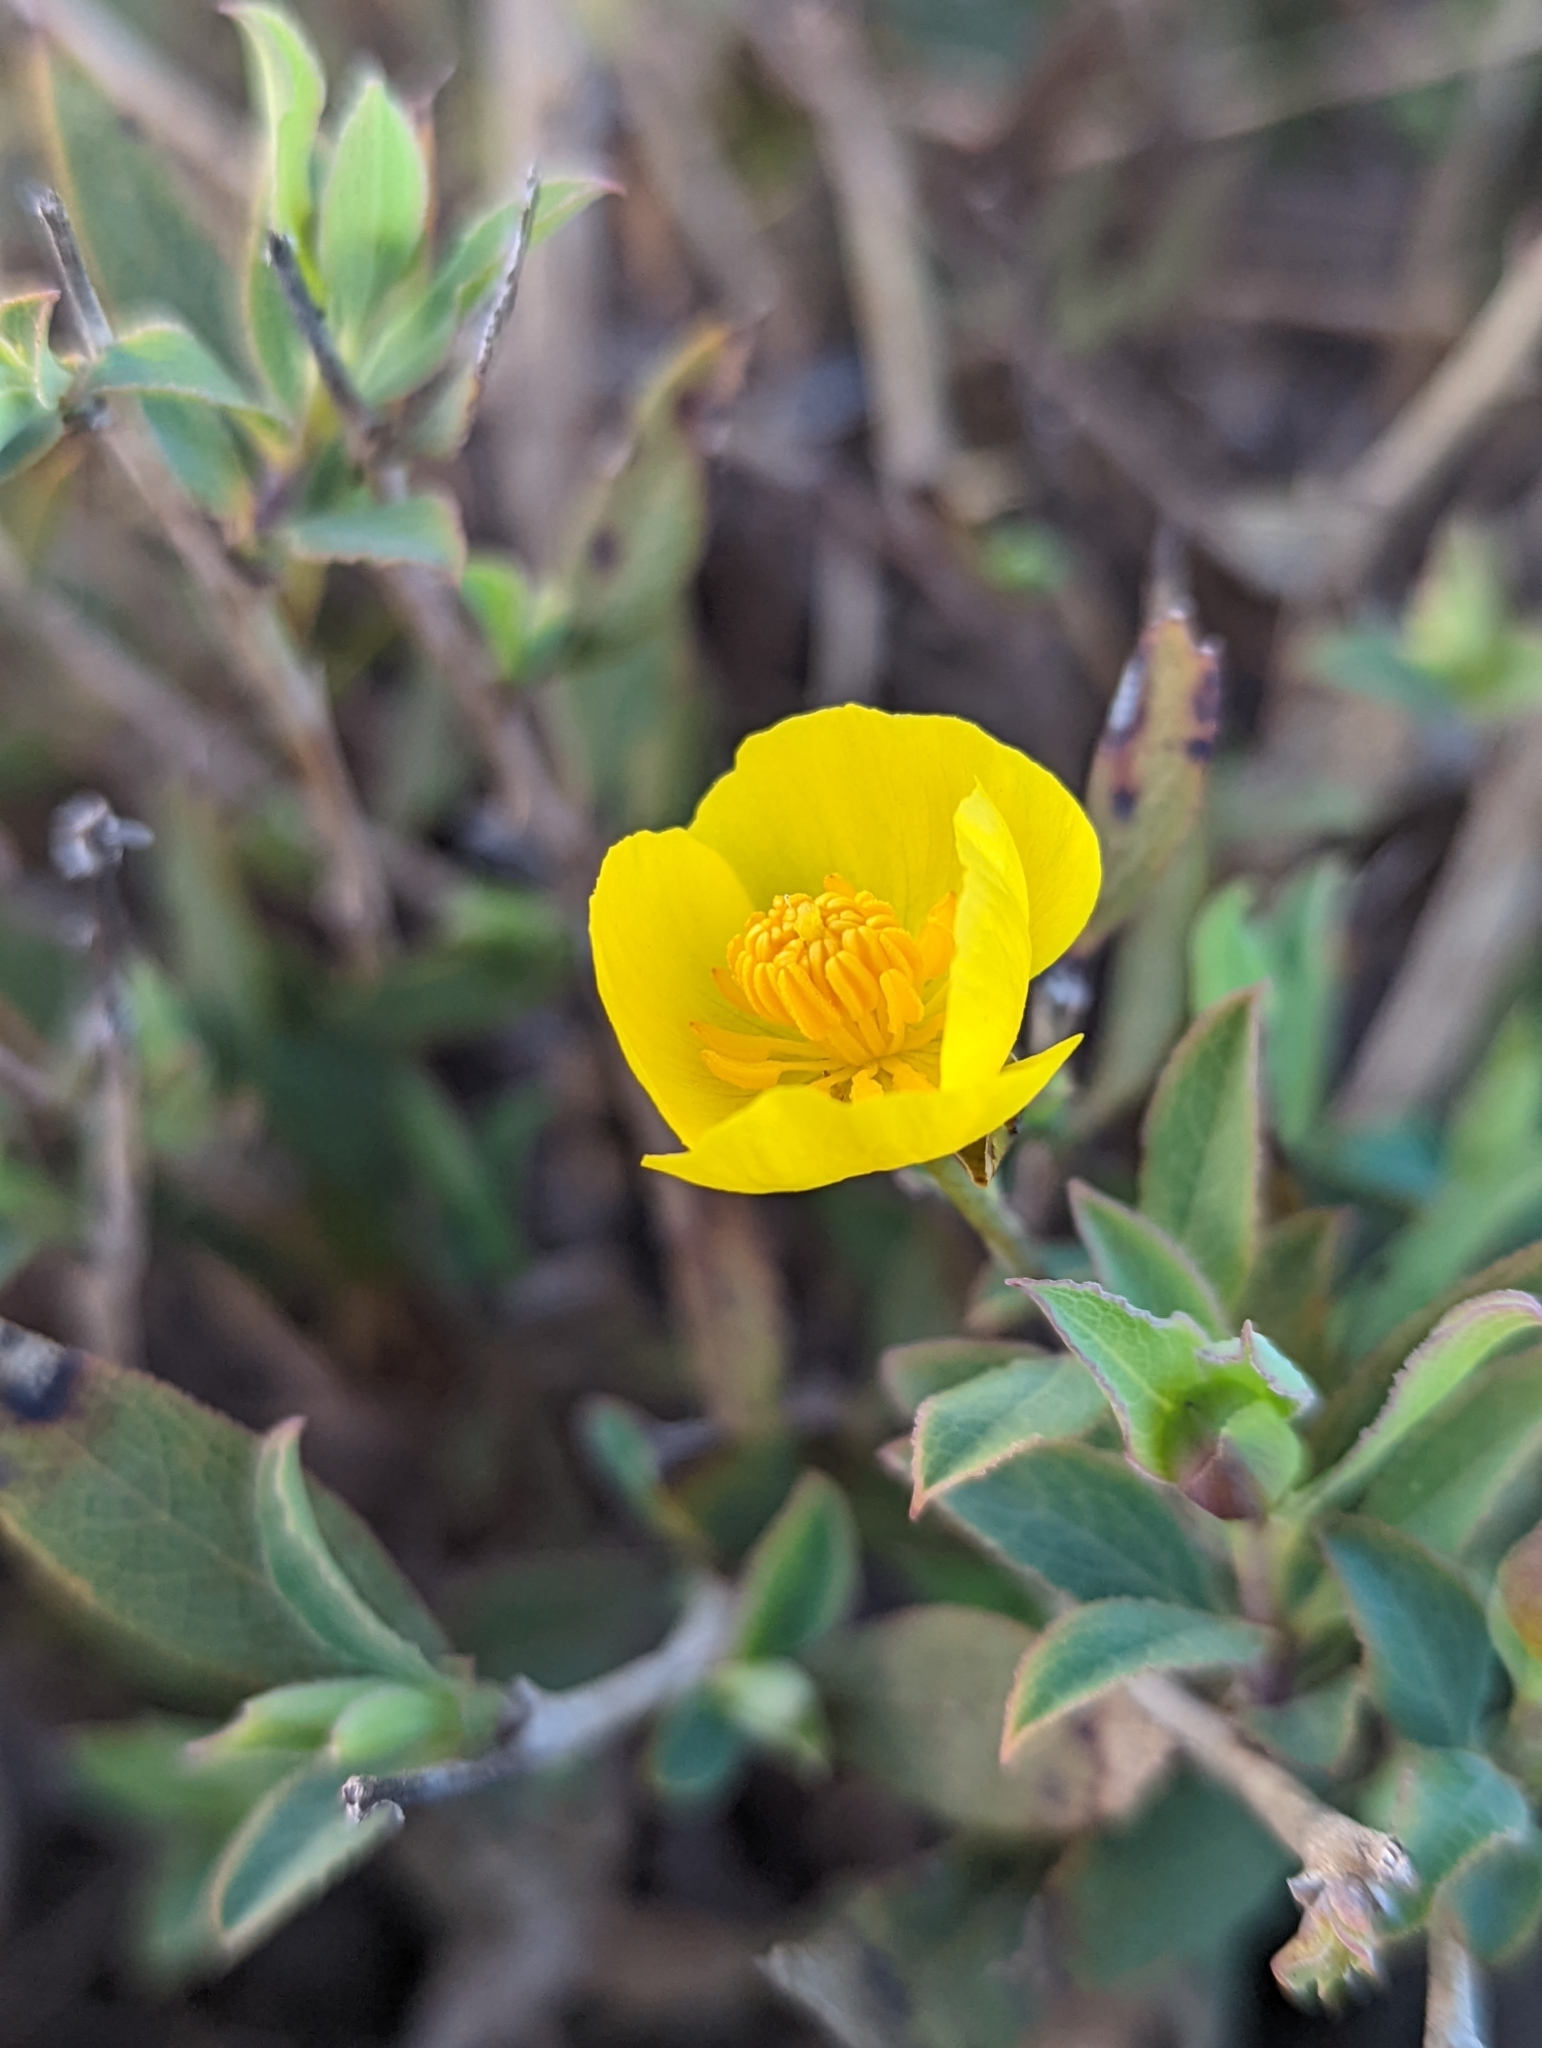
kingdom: Plantae
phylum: Tracheophyta
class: Magnoliopsida
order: Ranunculales
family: Papaveraceae
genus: Dendromecon
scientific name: Dendromecon rigida
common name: Tree poppy
